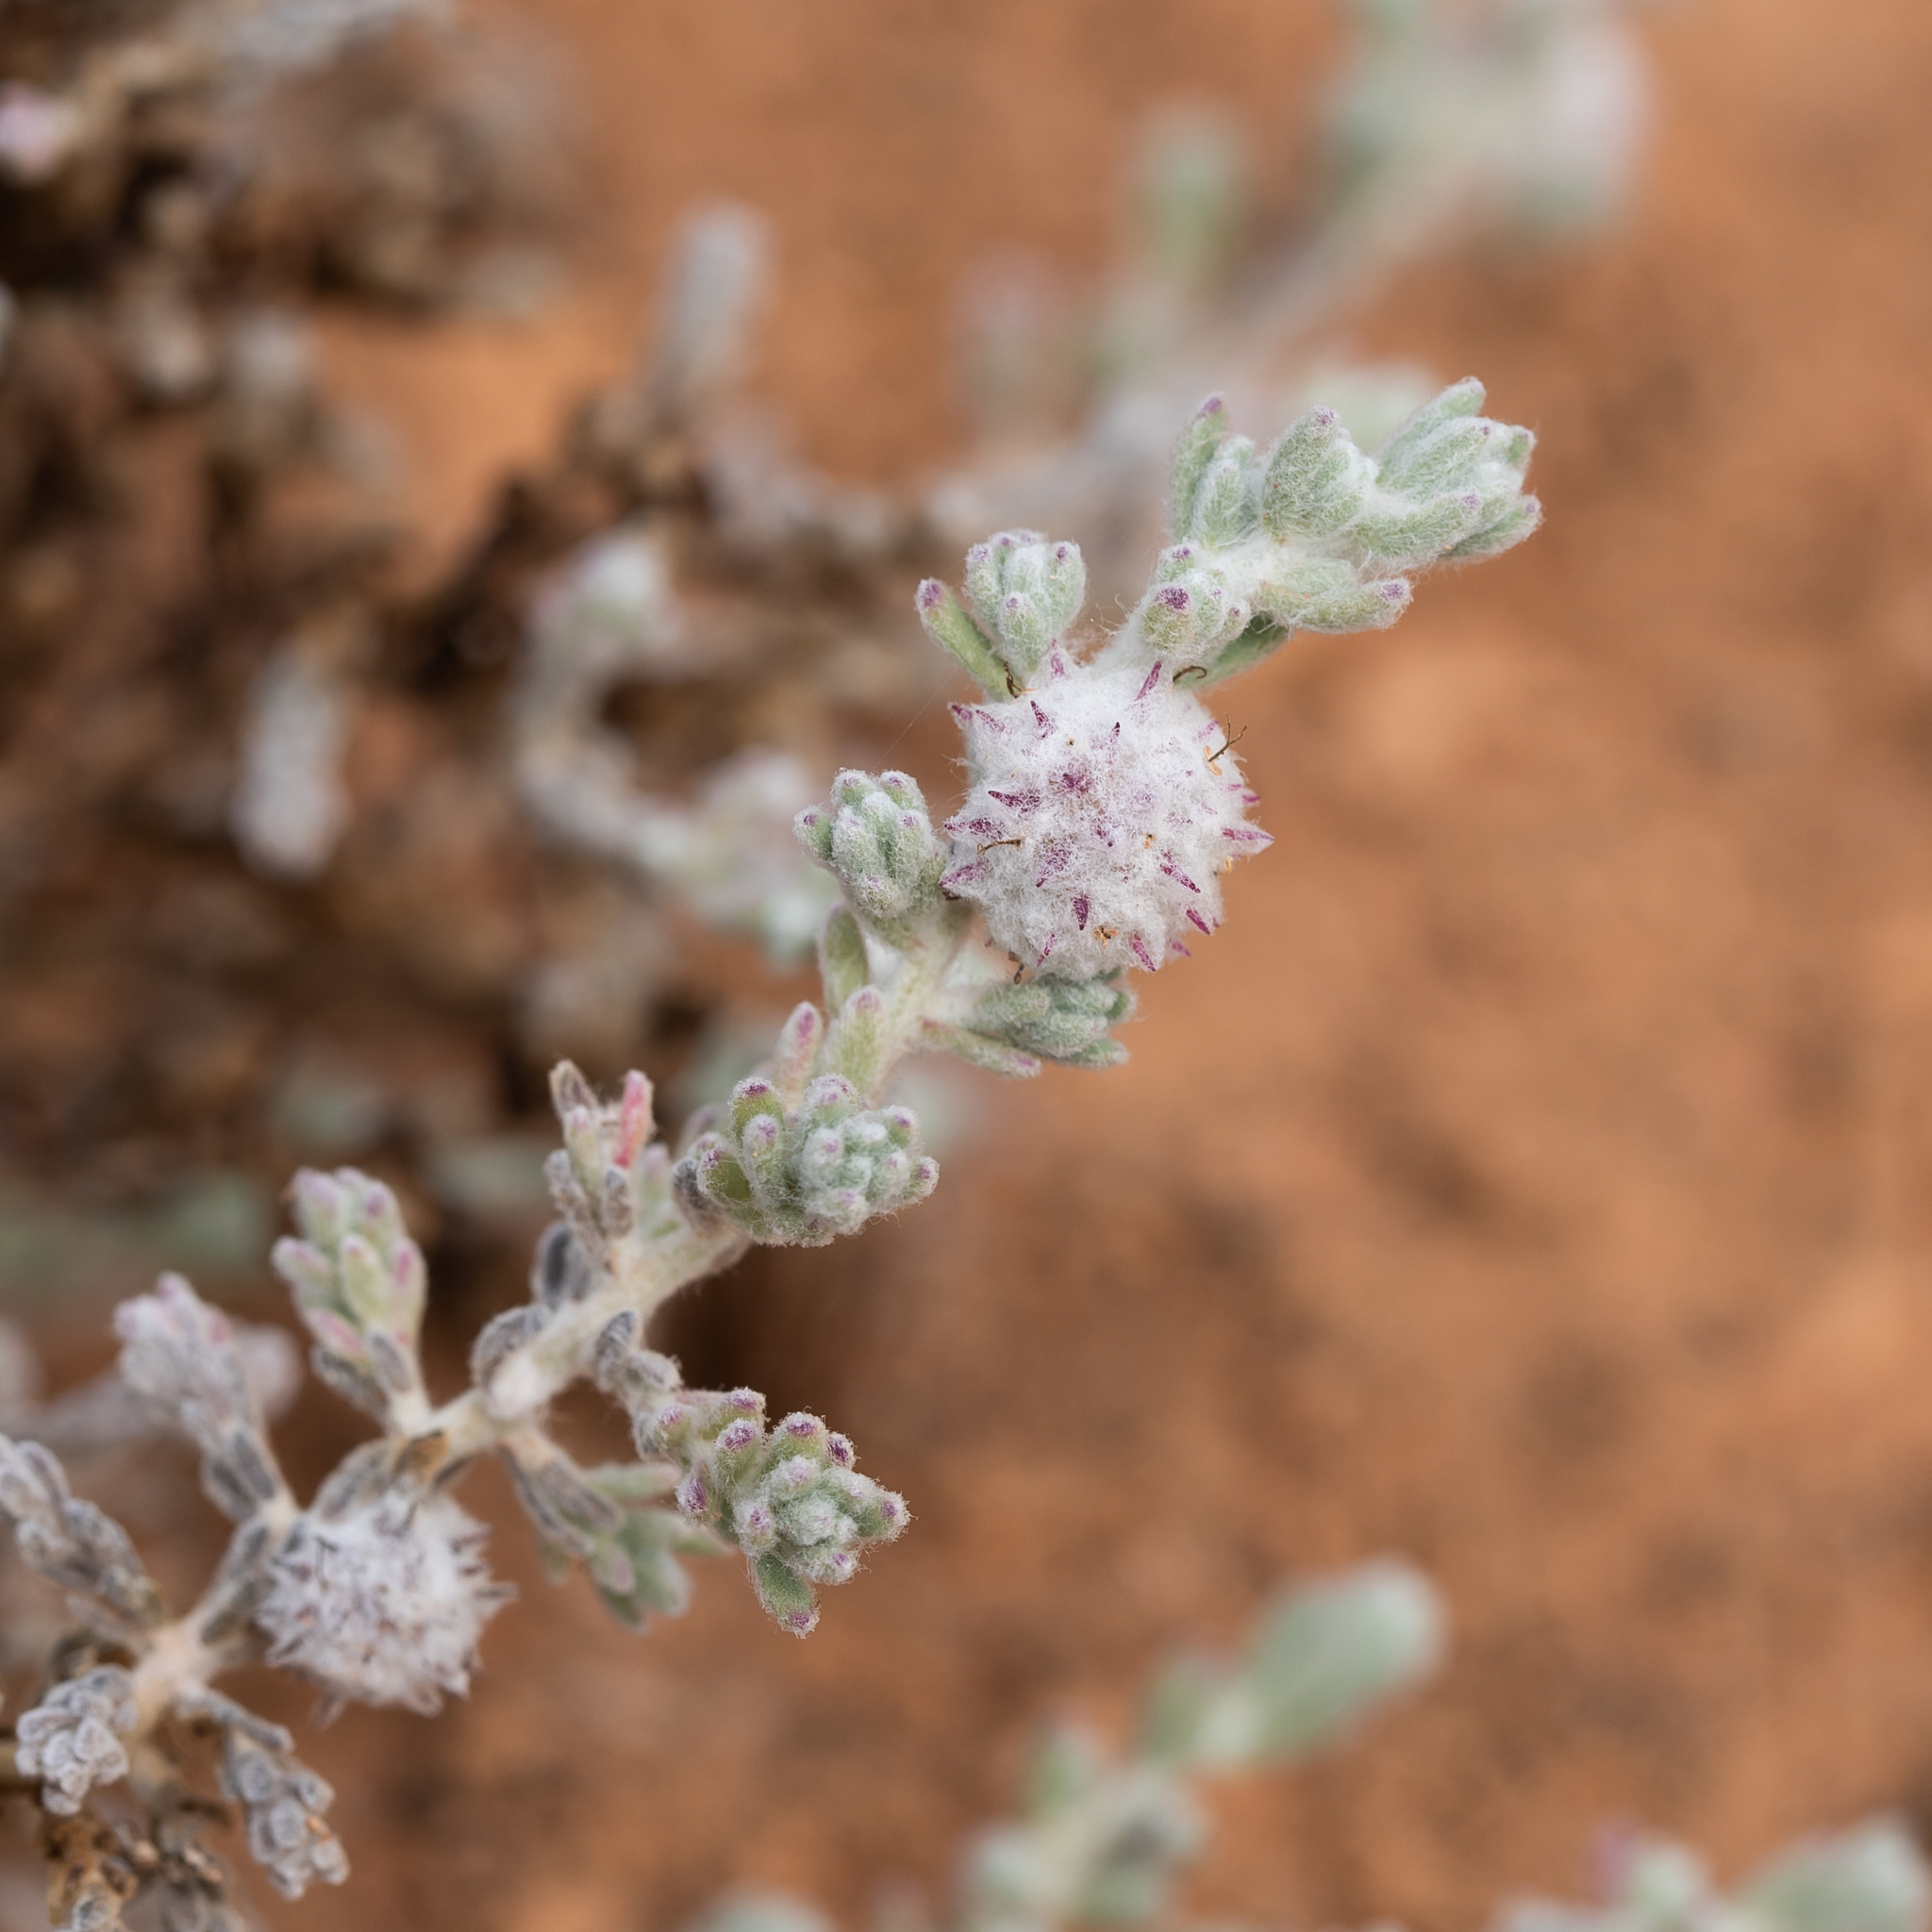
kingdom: Plantae
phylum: Tracheophyta
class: Magnoliopsida
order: Caryophyllales
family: Amaranthaceae
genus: Dissocarpus
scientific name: Dissocarpus paradoxus
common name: Bur-saltbush
